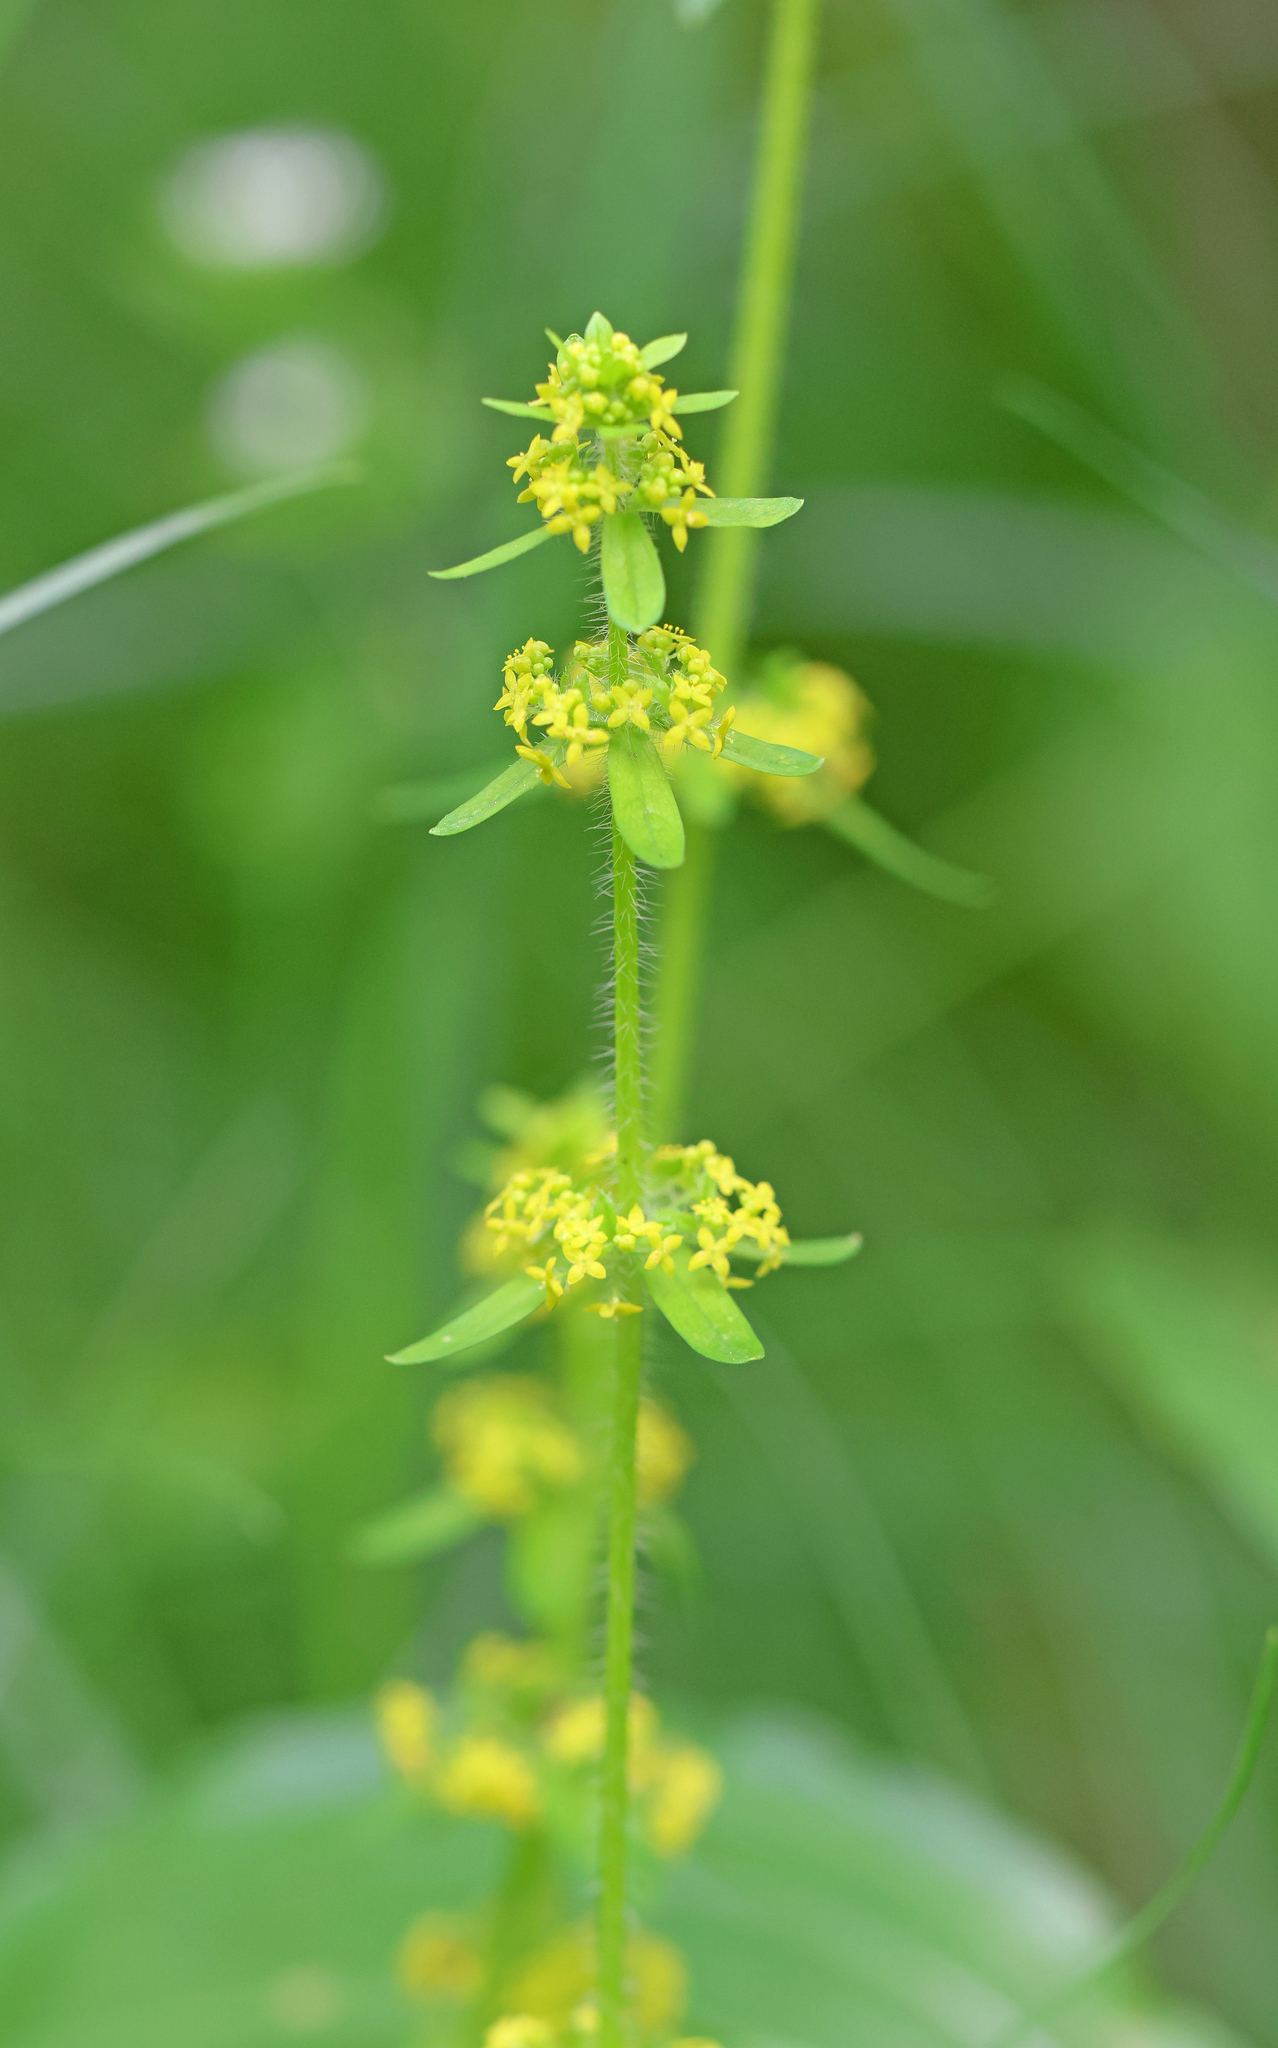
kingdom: Plantae
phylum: Tracheophyta
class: Magnoliopsida
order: Gentianales
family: Rubiaceae
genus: Cruciata
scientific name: Cruciata laevipes
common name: Crosswort
